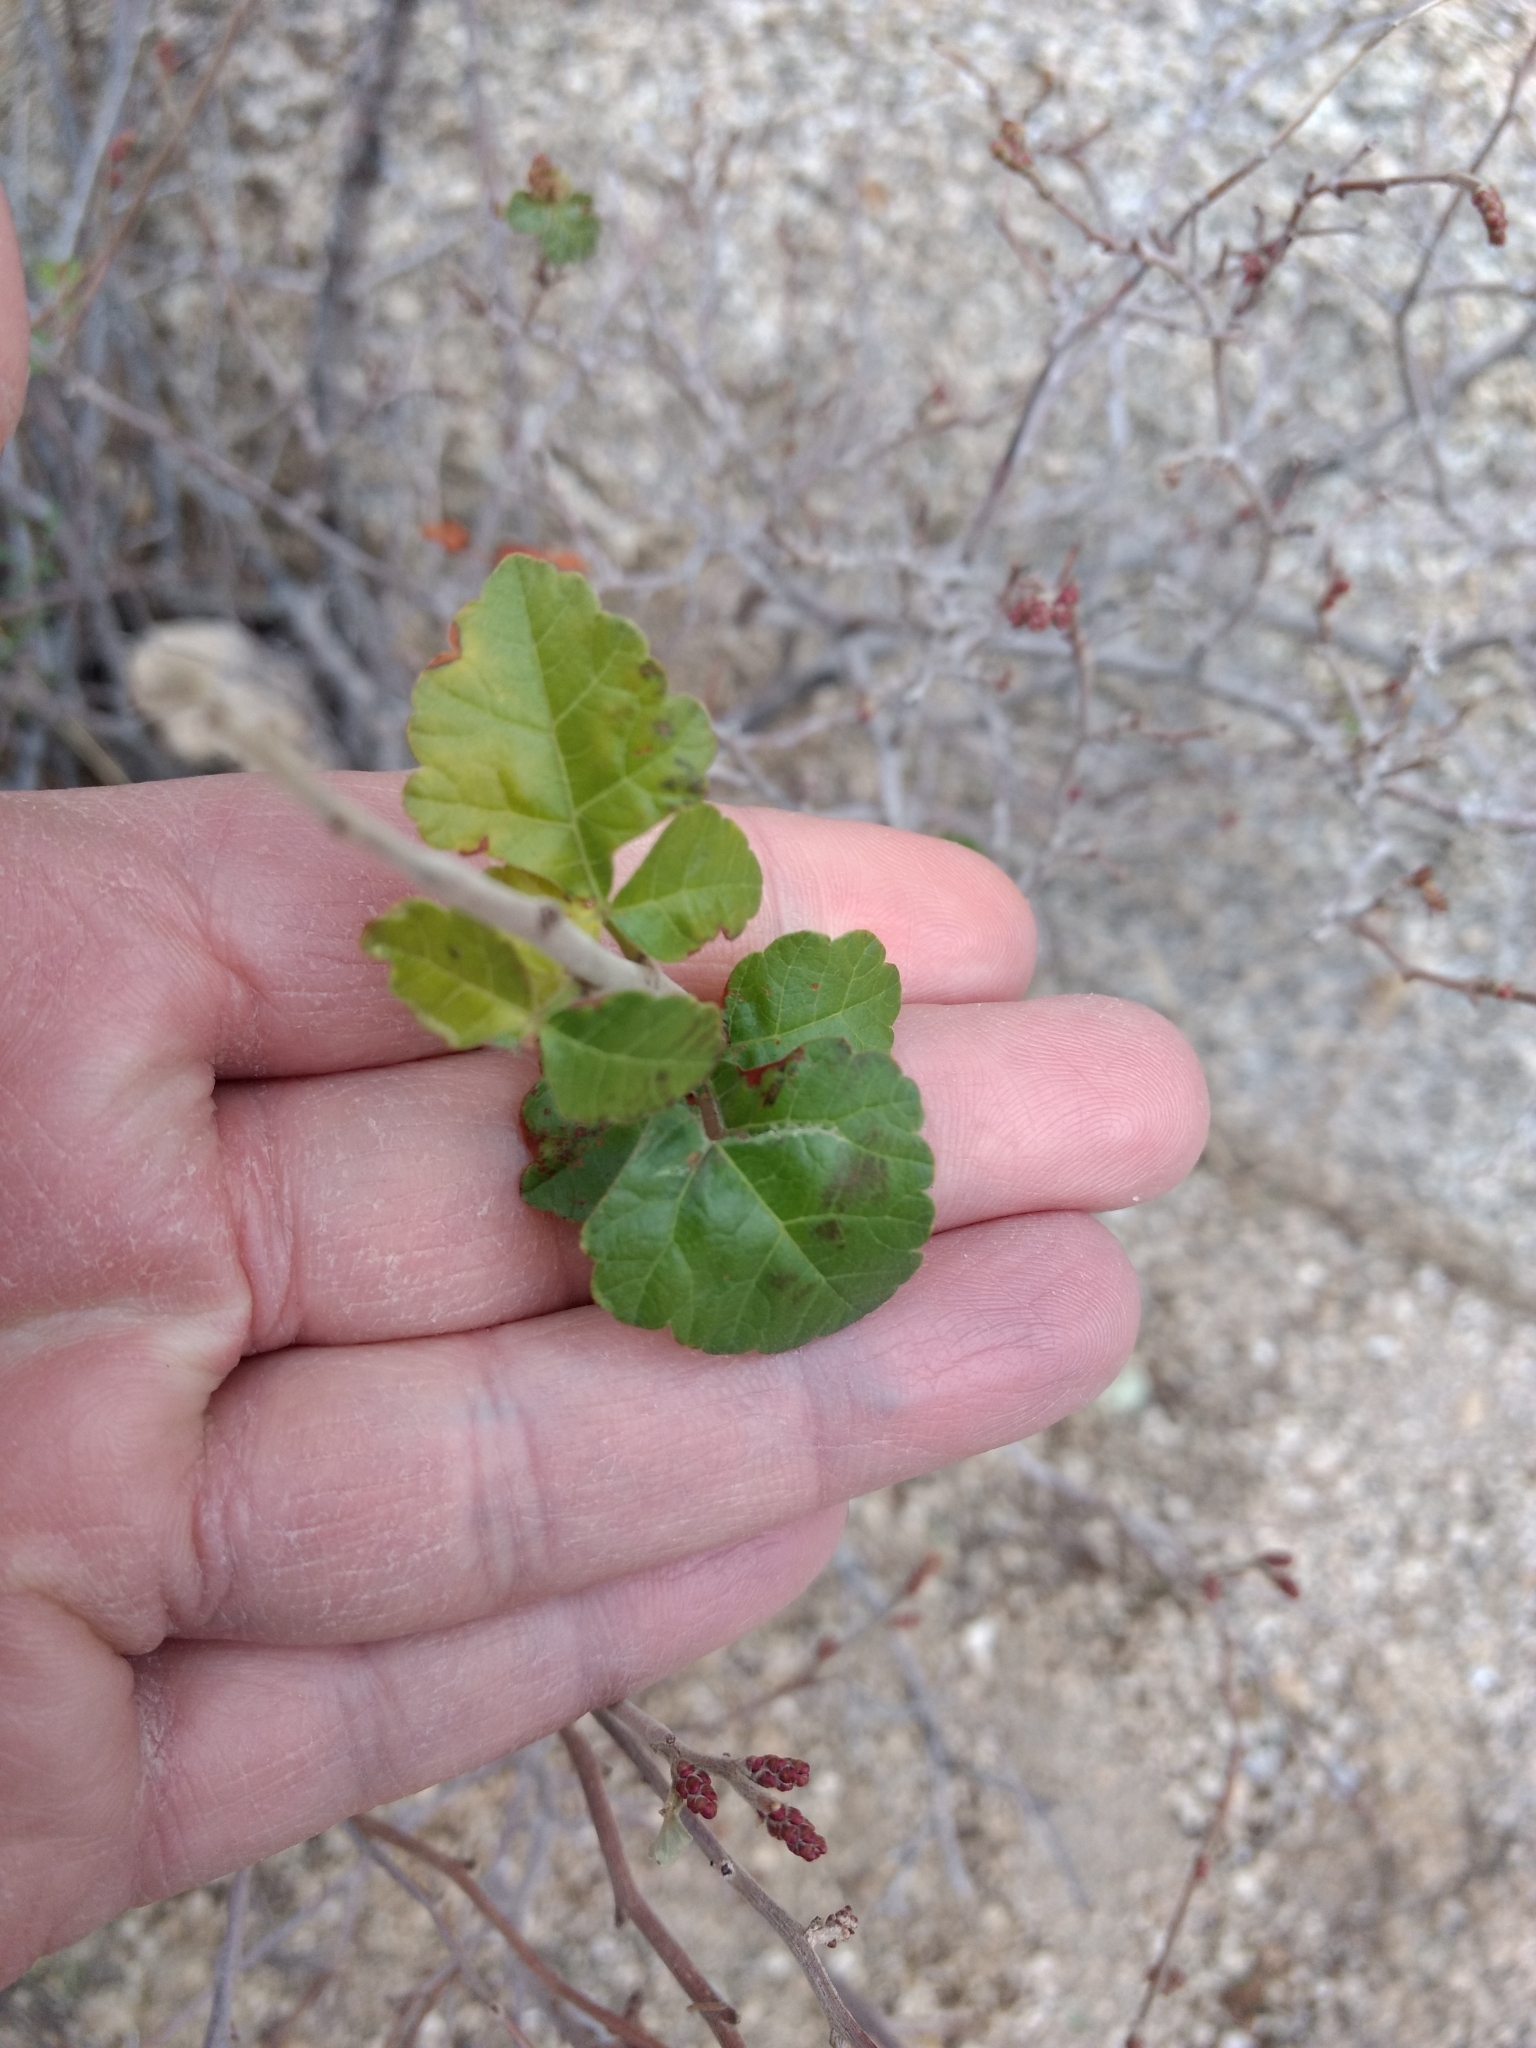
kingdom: Plantae
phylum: Tracheophyta
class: Magnoliopsida
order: Sapindales
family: Anacardiaceae
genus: Rhus
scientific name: Rhus aromatica
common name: Aromatic sumac
